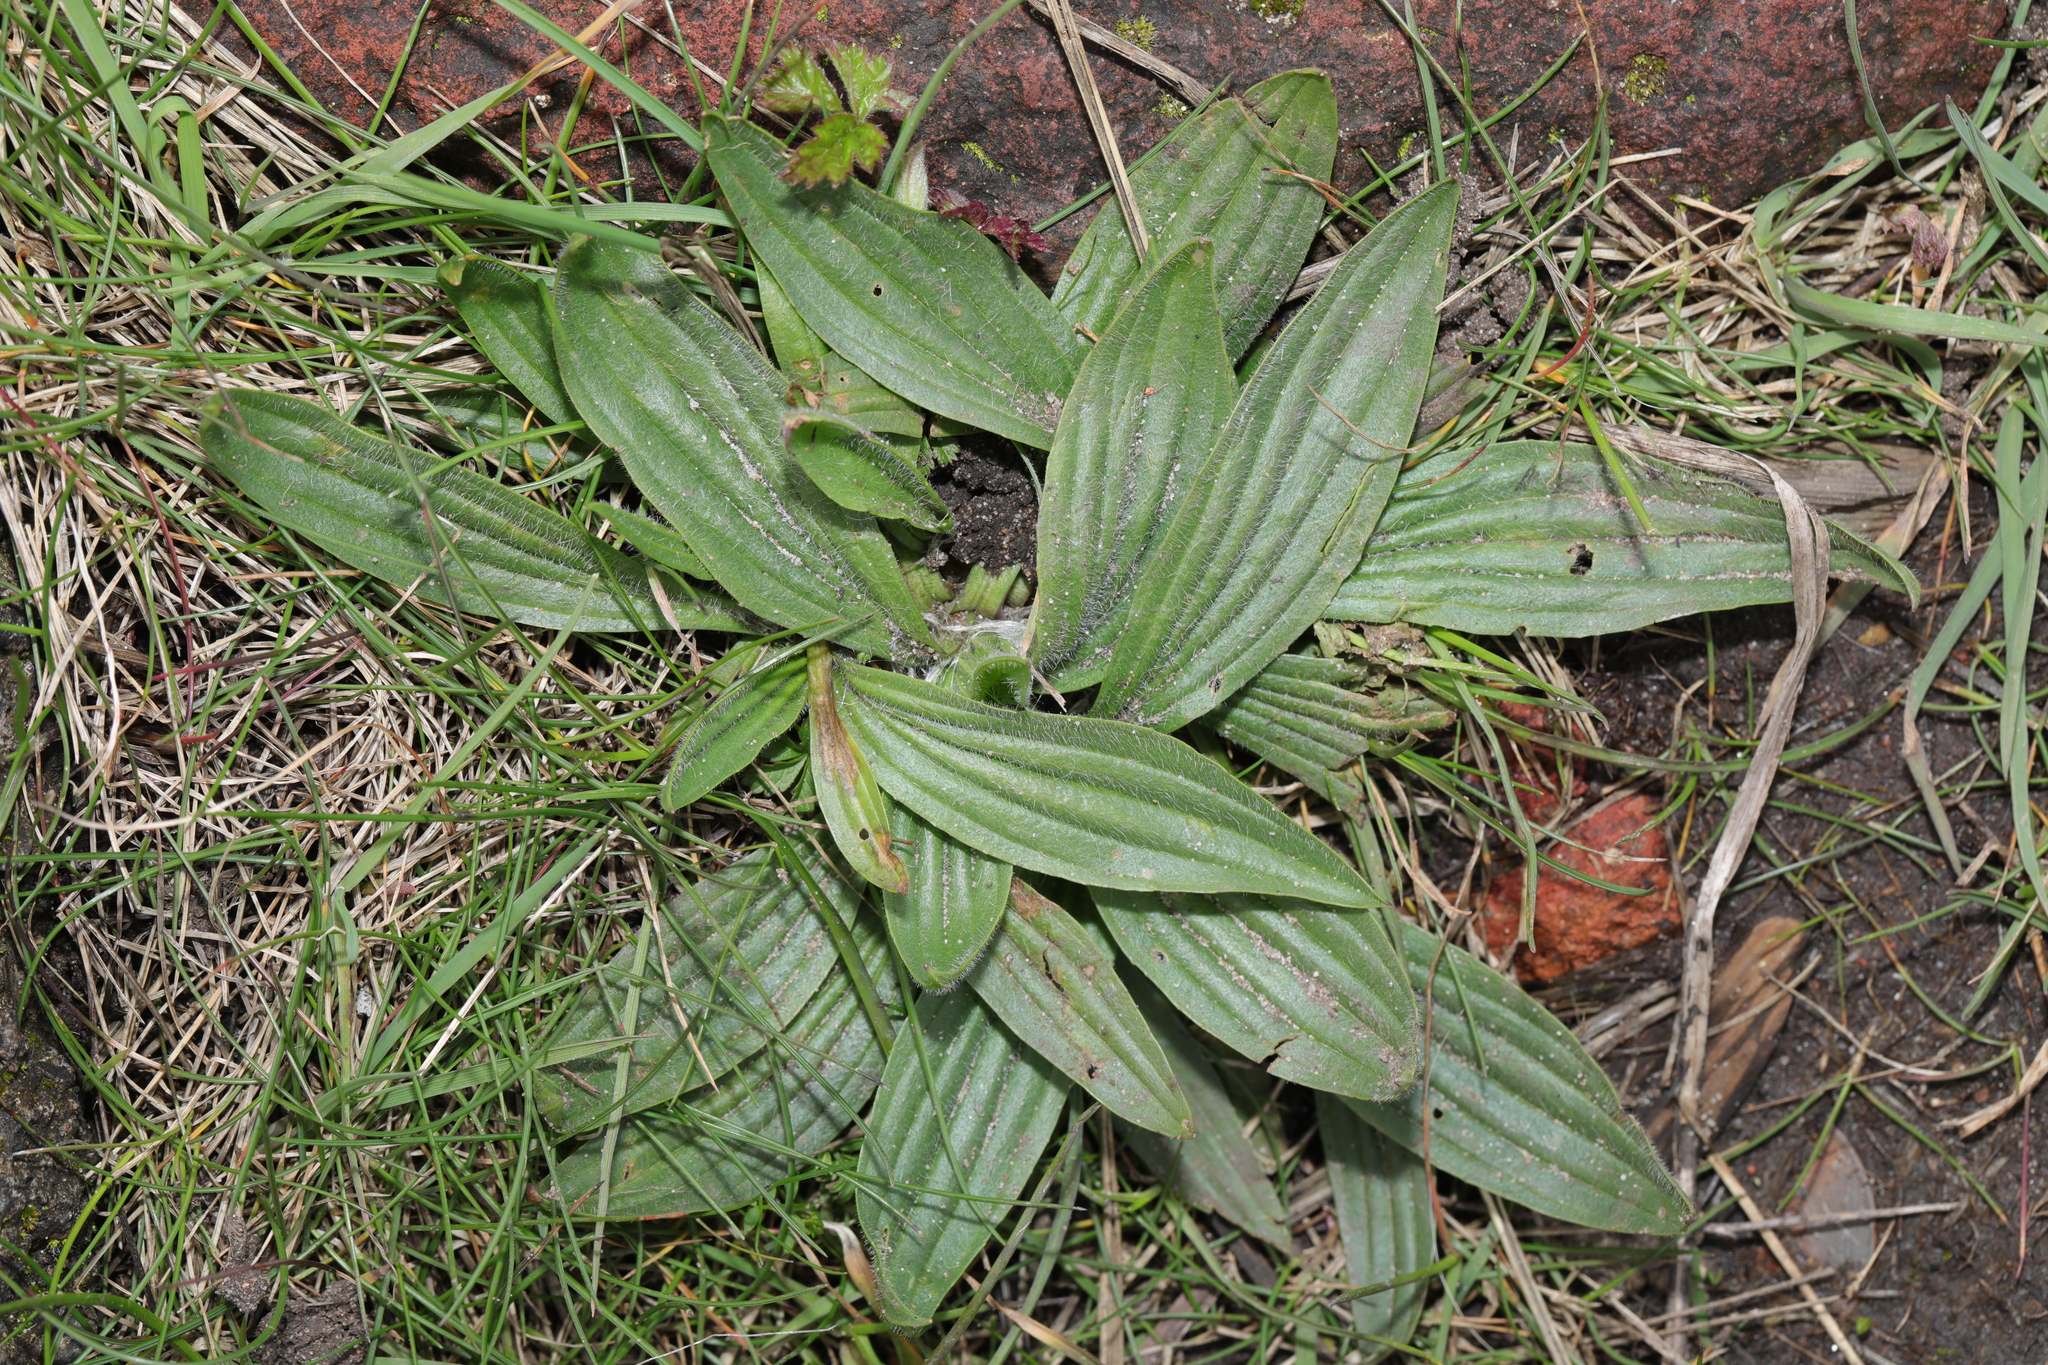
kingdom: Plantae
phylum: Tracheophyta
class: Magnoliopsida
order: Lamiales
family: Plantaginaceae
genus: Plantago
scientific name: Plantago lanceolata
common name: Ribwort plantain
